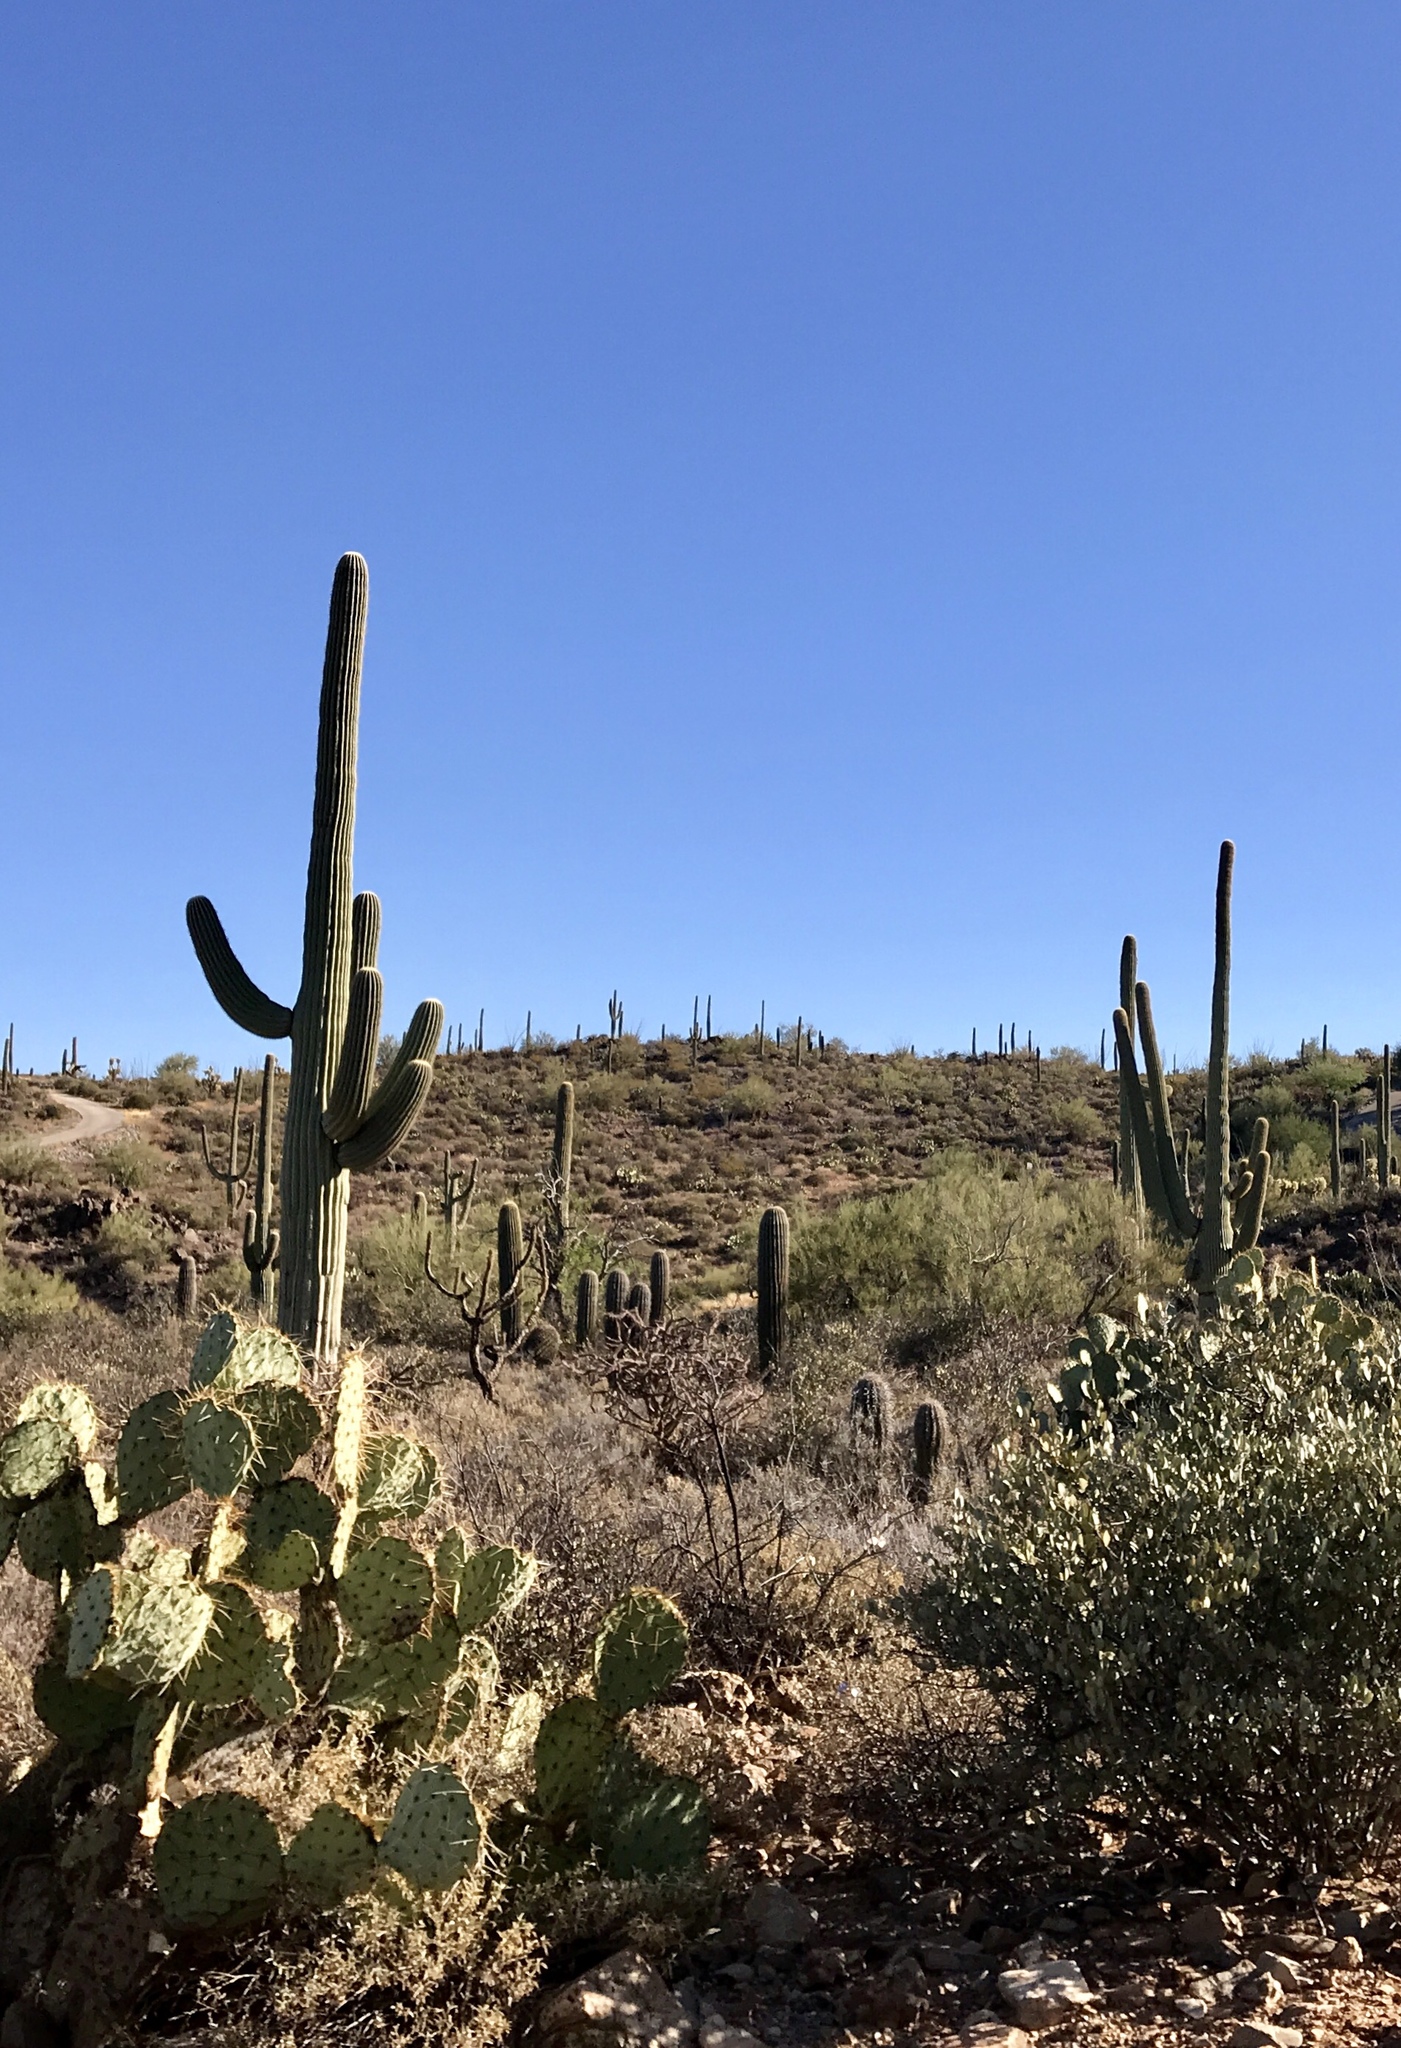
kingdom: Plantae
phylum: Tracheophyta
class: Magnoliopsida
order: Caryophyllales
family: Cactaceae
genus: Carnegiea
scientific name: Carnegiea gigantea
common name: Saguaro
